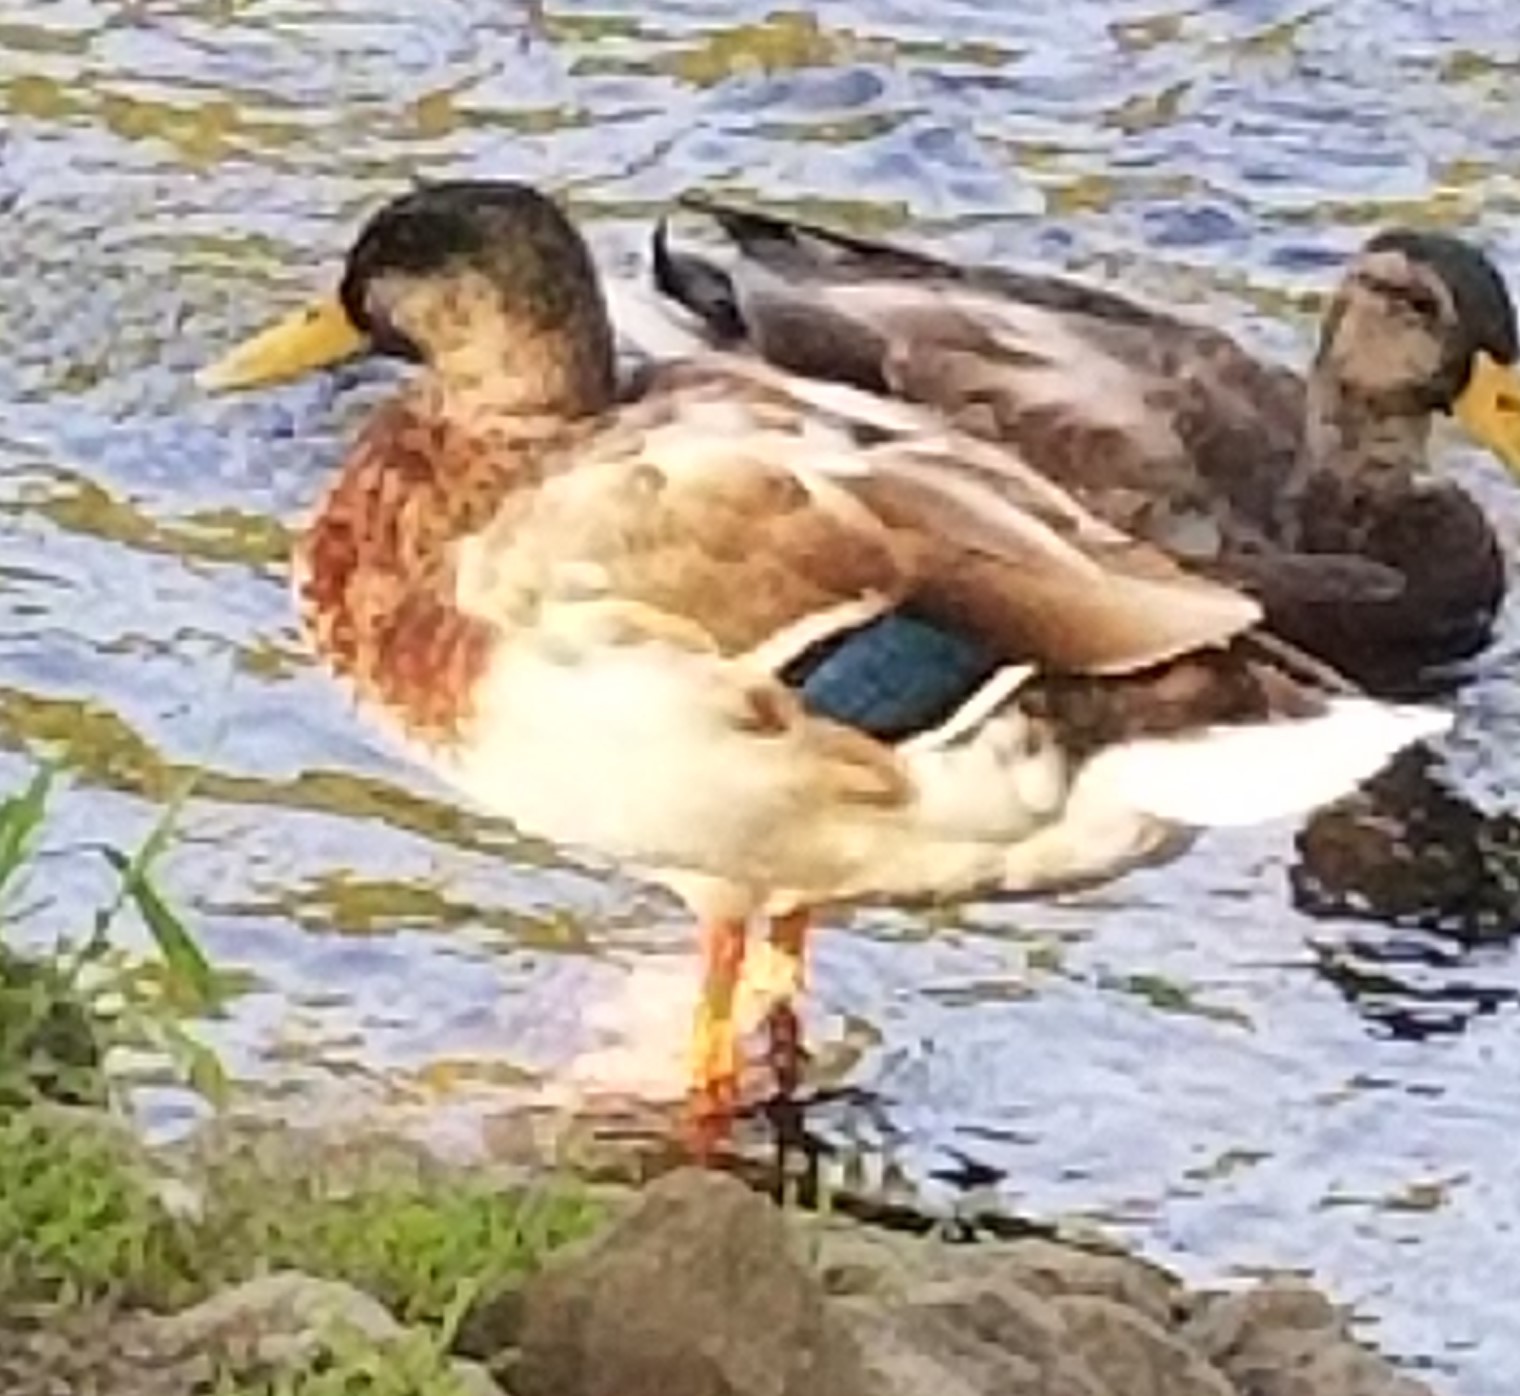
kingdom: Animalia
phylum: Chordata
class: Aves
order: Anseriformes
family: Anatidae
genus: Anas
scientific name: Anas platyrhynchos
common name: Mallard
